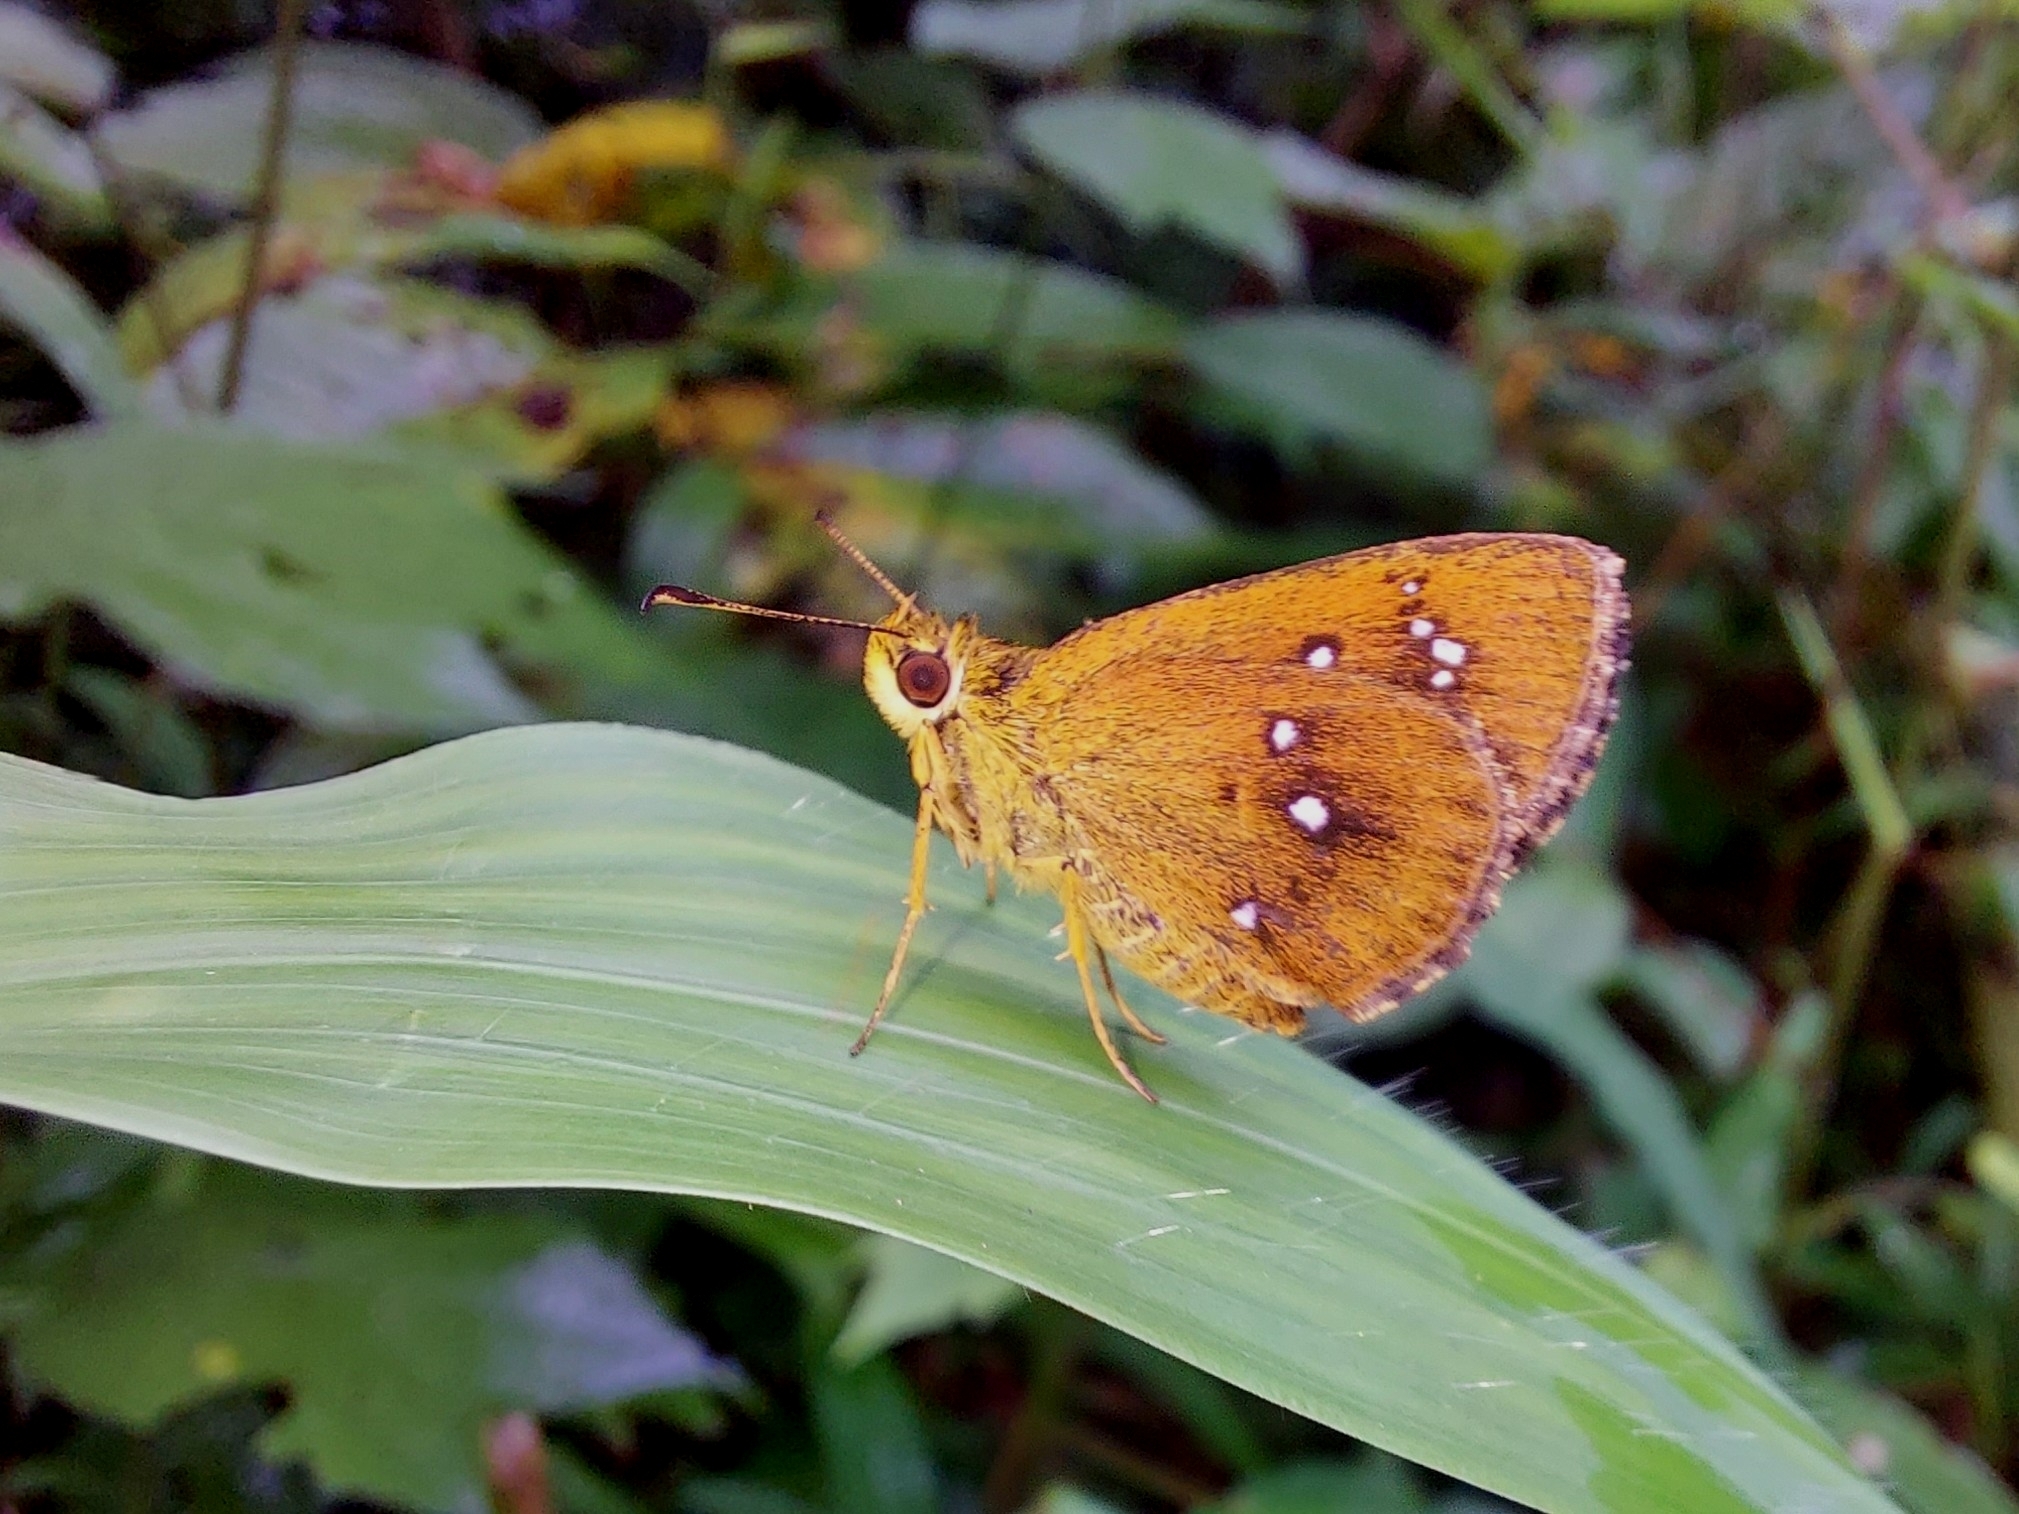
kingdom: Animalia
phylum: Arthropoda
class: Insecta
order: Lepidoptera
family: Hesperiidae
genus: Iambrix
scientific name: Iambrix salsala
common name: Chestnut bob
